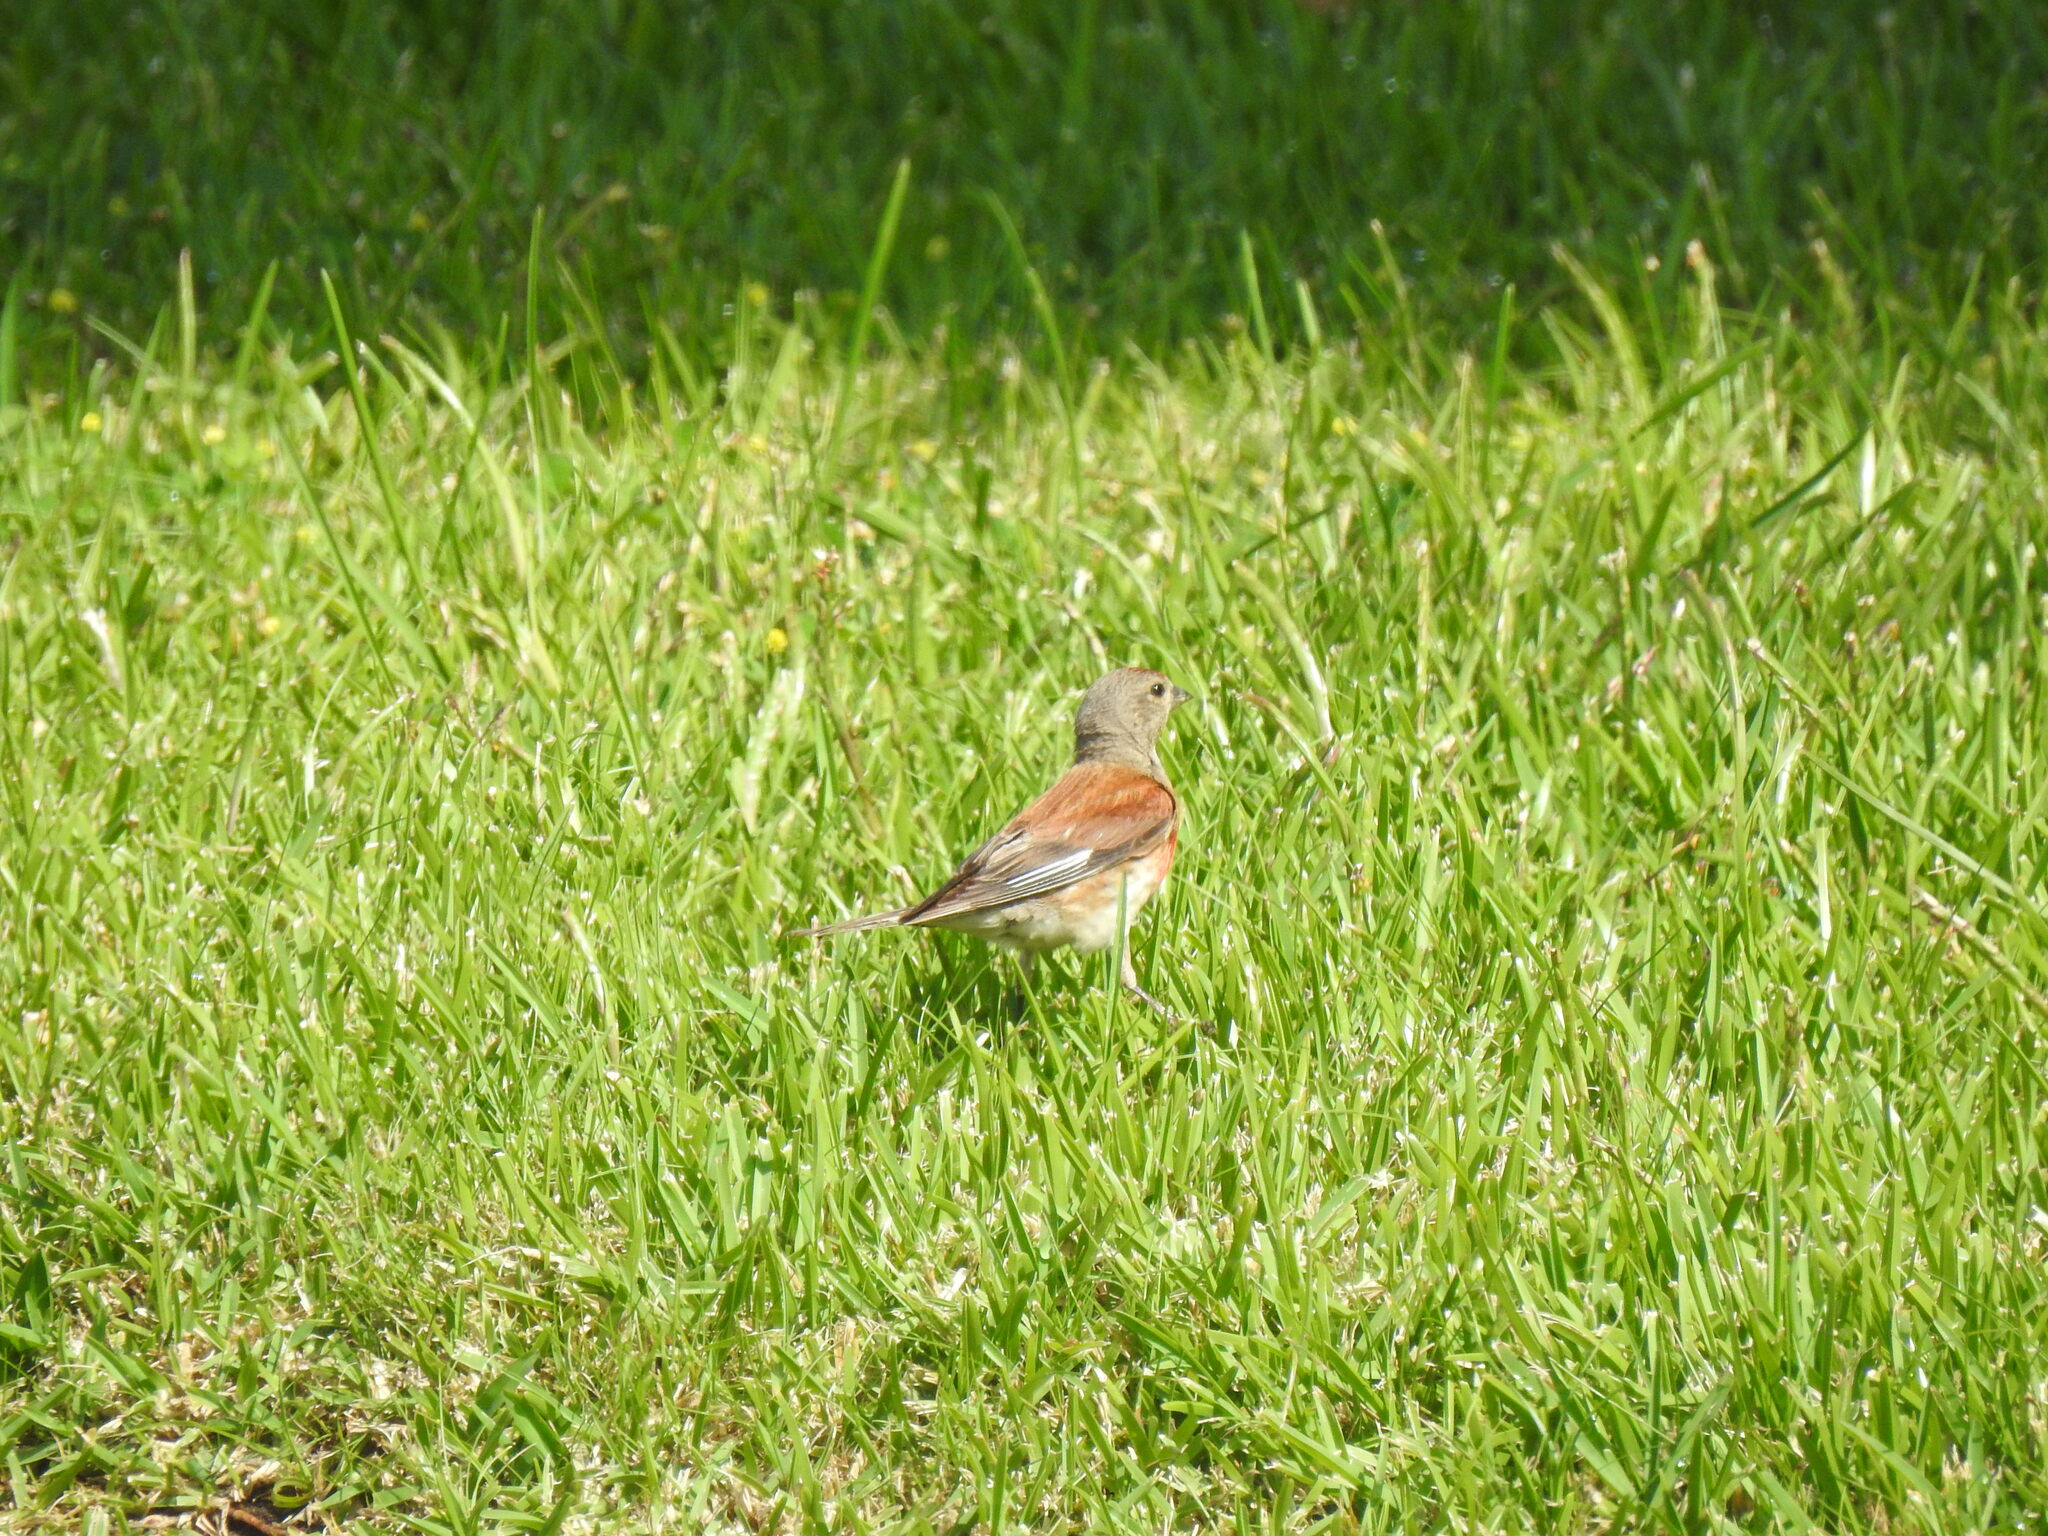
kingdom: Animalia
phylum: Chordata
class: Aves
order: Passeriformes
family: Fringillidae
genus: Linaria
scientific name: Linaria cannabina
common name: Common linnet
